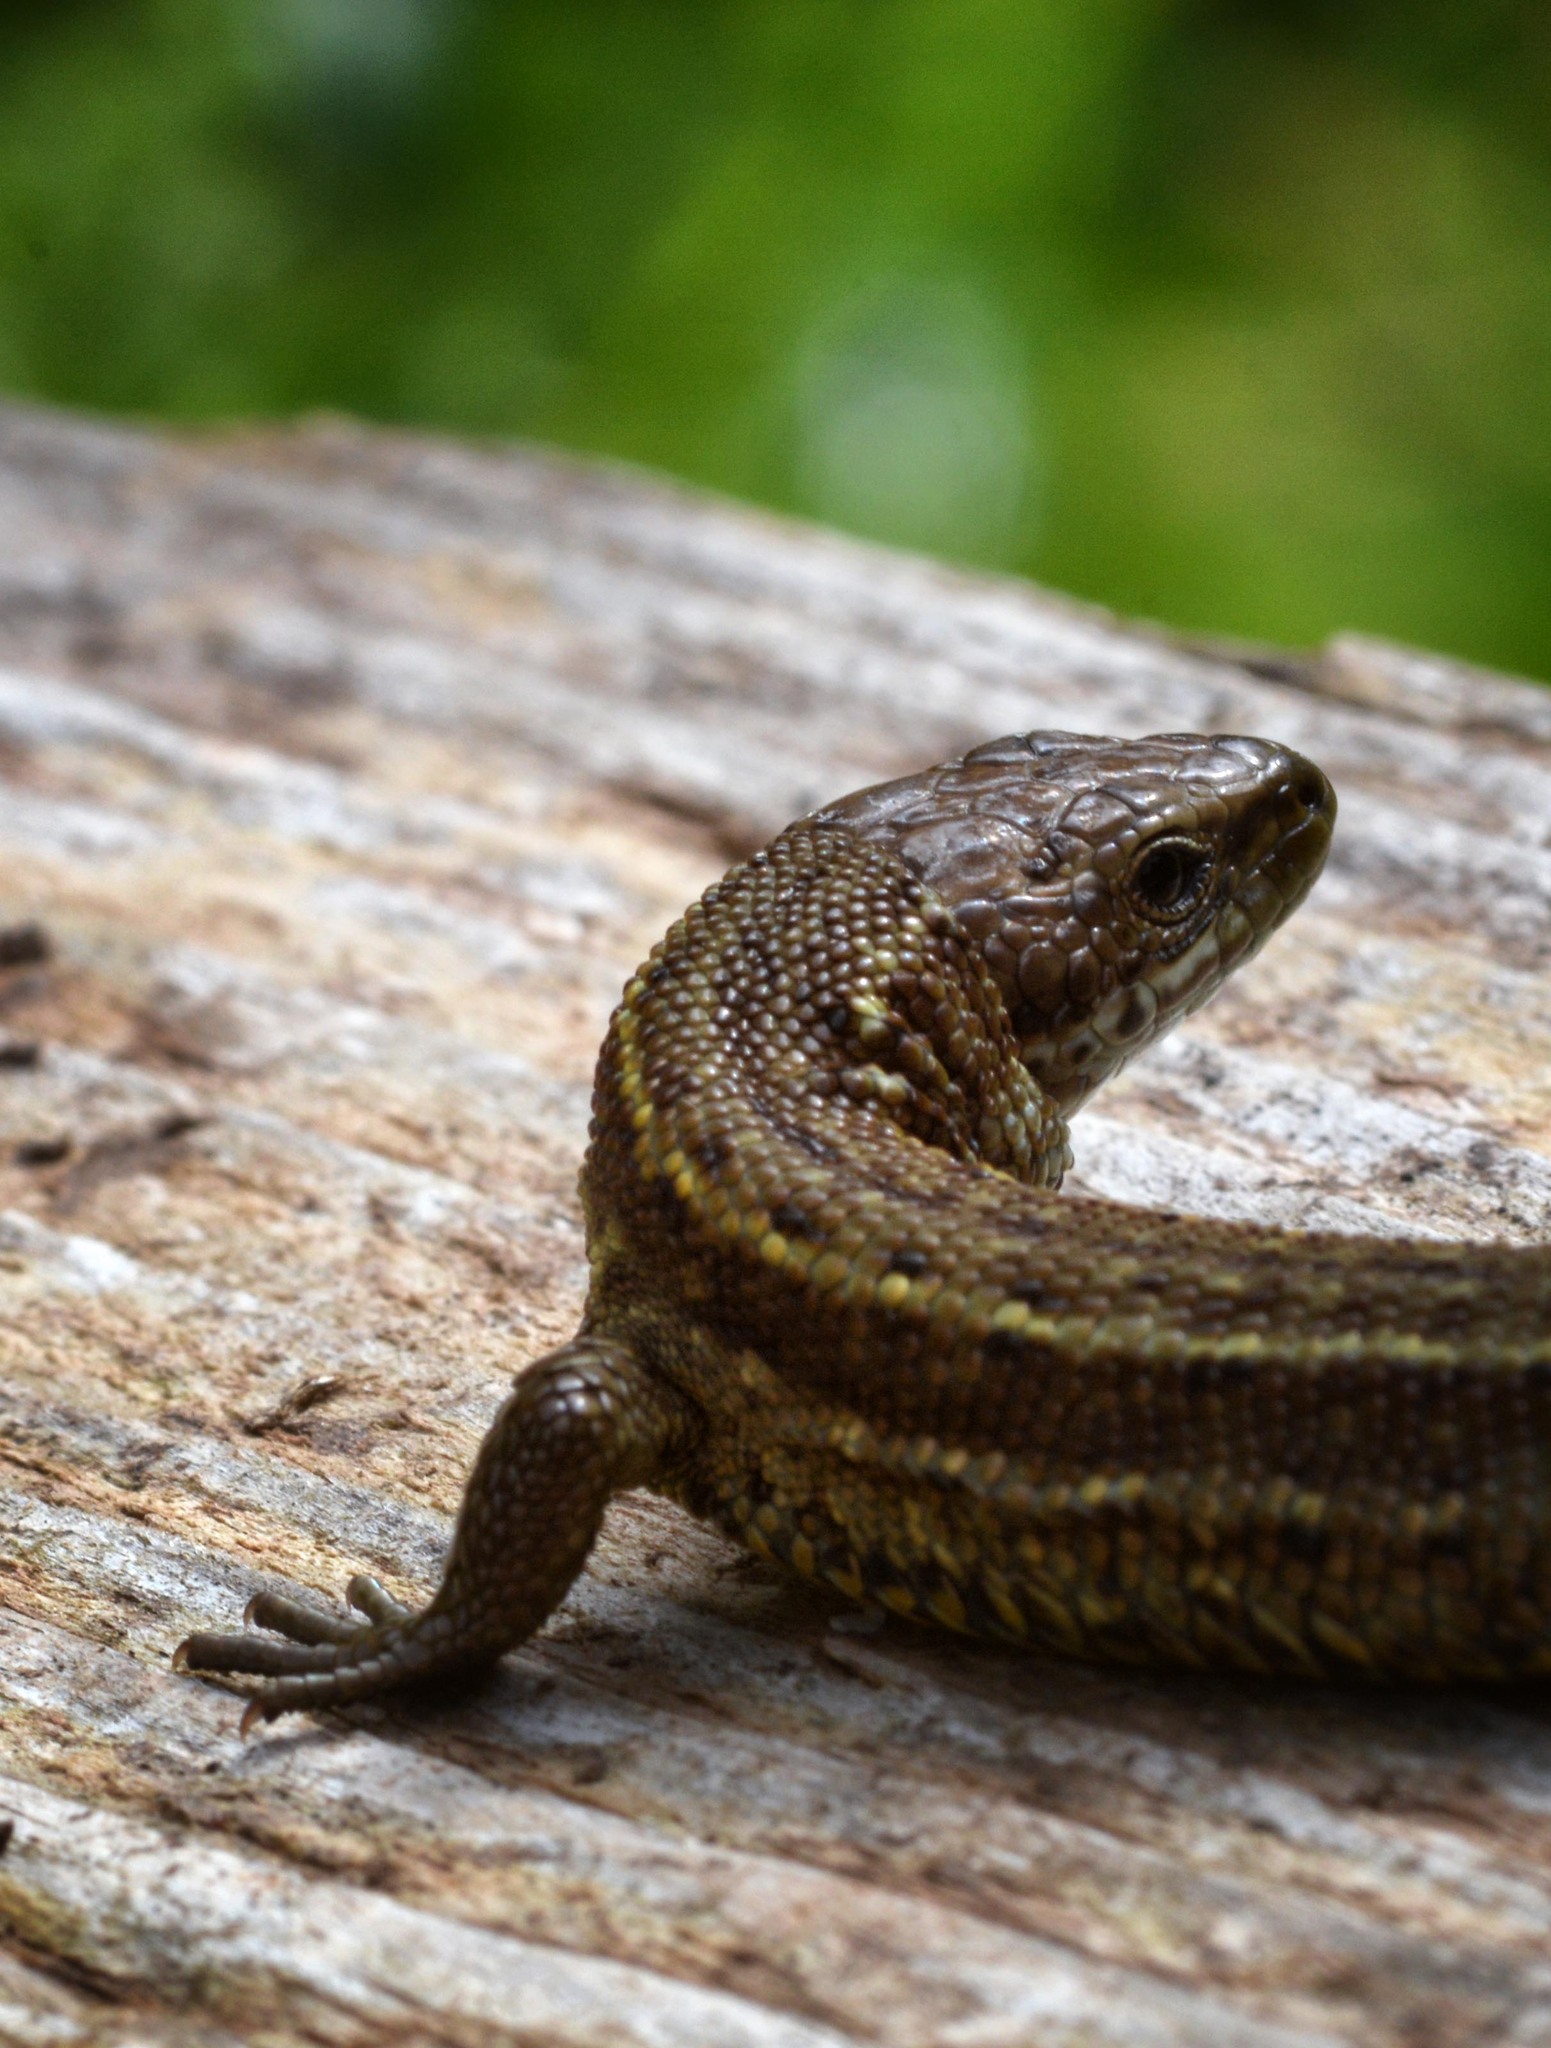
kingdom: Animalia
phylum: Chordata
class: Squamata
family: Lacertidae
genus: Zootoca
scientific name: Zootoca vivipara
